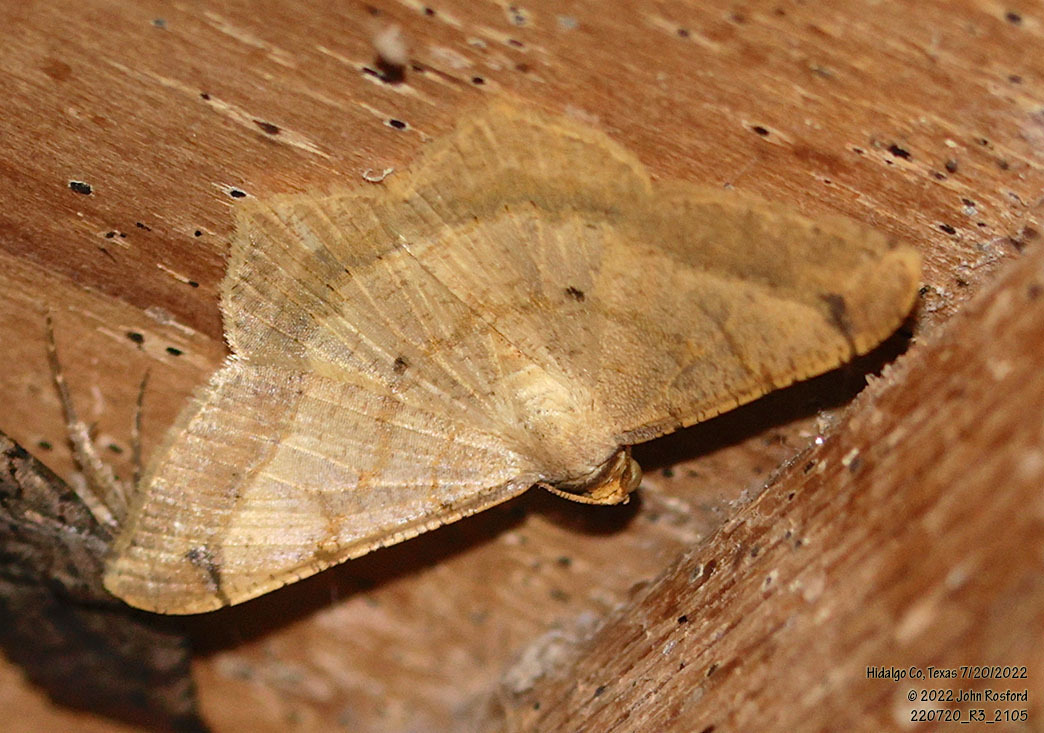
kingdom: Animalia
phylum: Arthropoda
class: Insecta
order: Lepidoptera
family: Geometridae
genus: Macaria
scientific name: Macaria abydata
